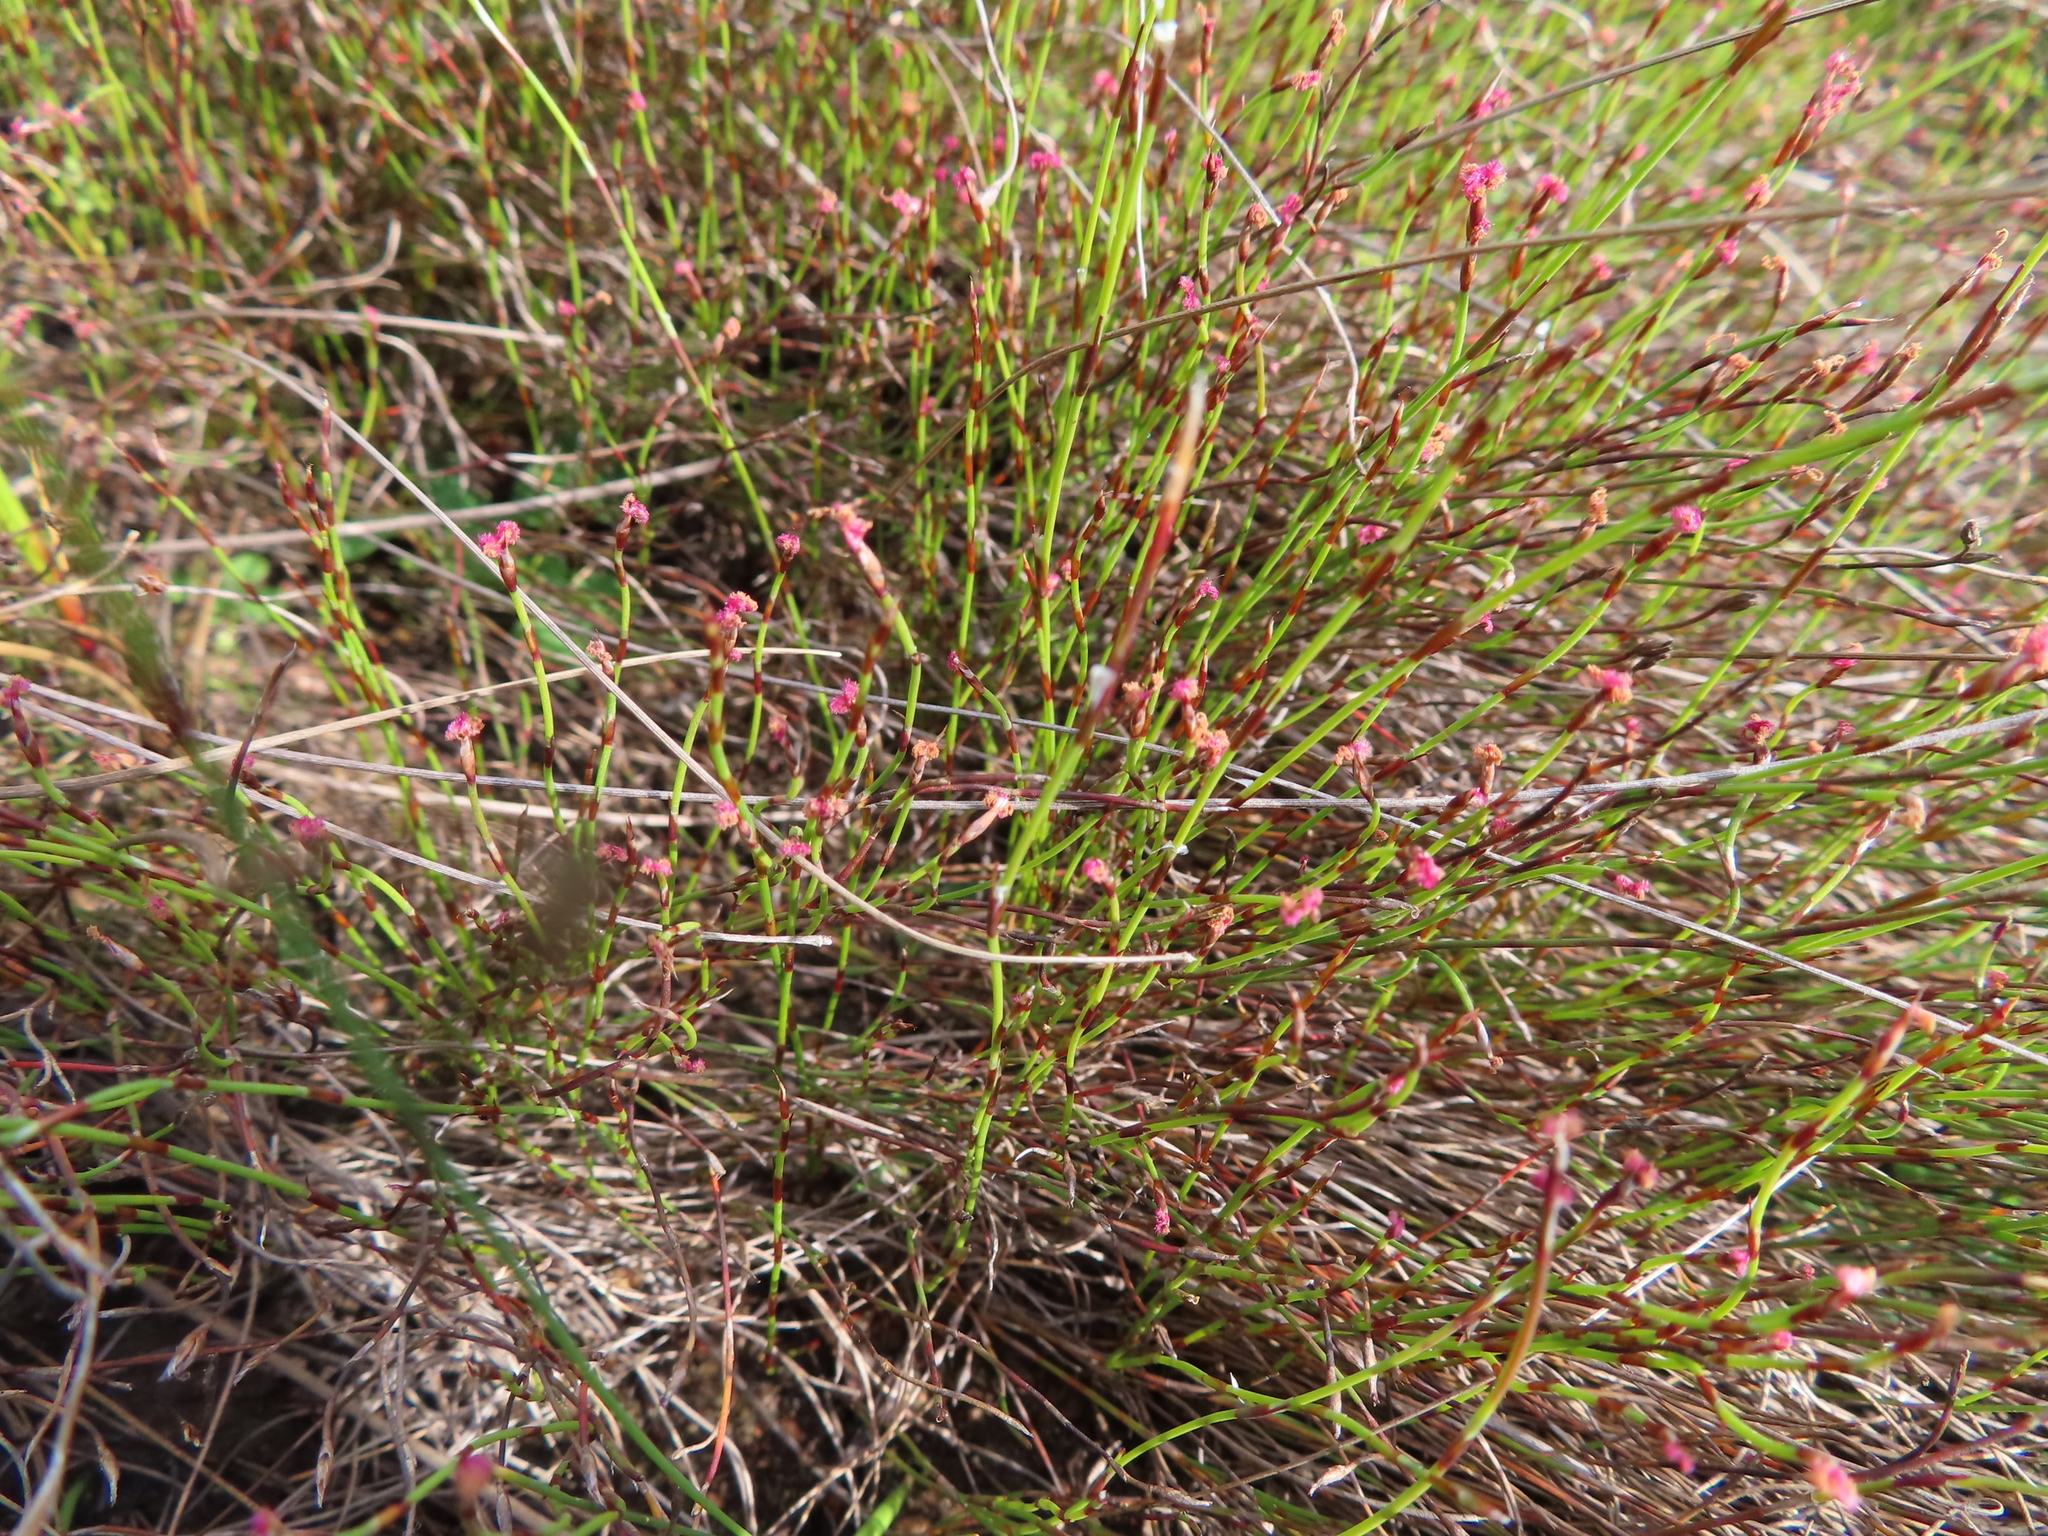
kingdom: Plantae
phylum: Tracheophyta
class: Liliopsida
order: Poales
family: Restionaceae
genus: Restio
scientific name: Restio pratensis
